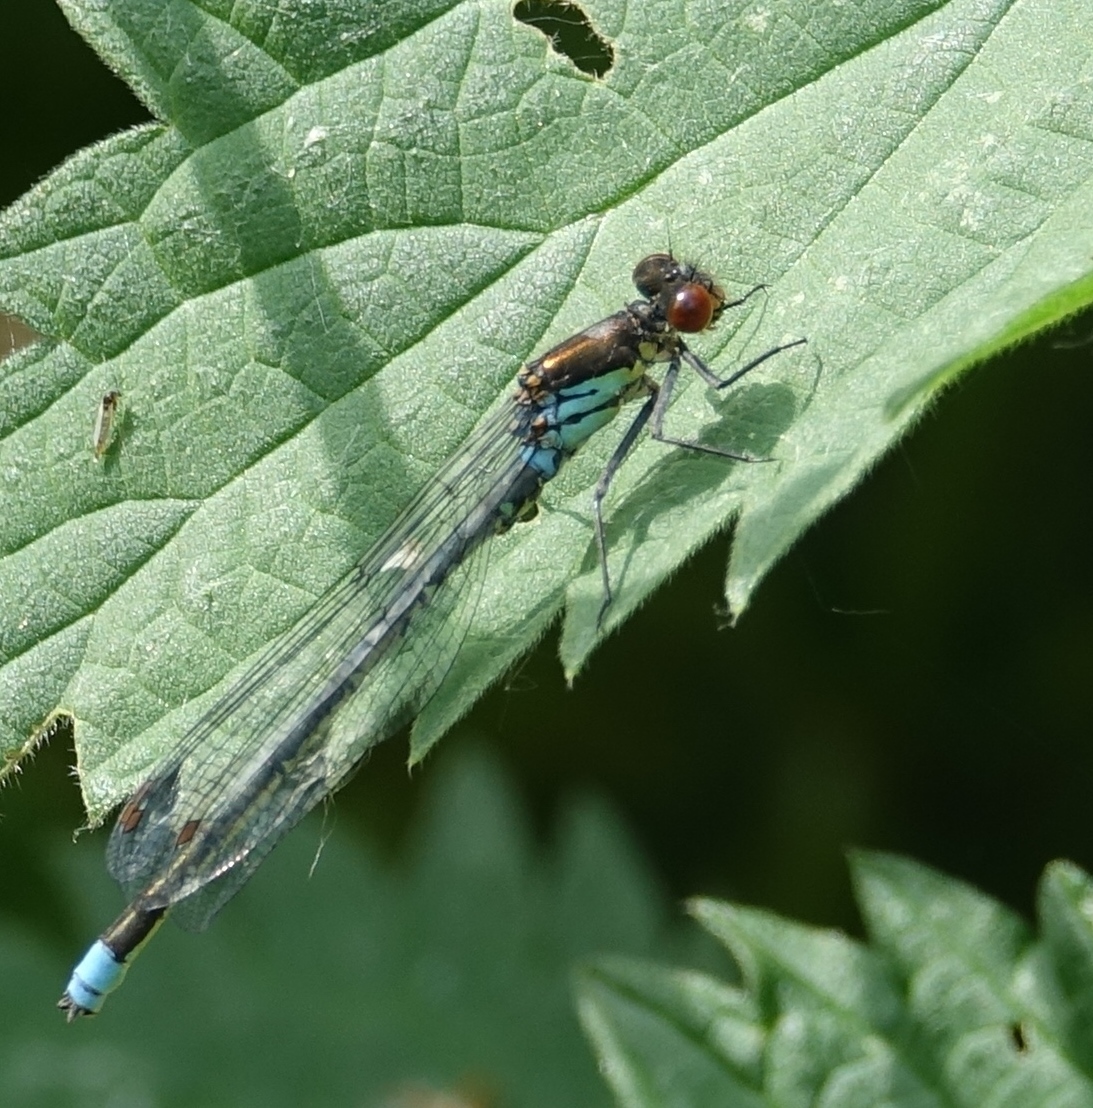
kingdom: Animalia
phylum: Arthropoda
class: Insecta
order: Odonata
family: Coenagrionidae
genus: Erythromma
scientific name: Erythromma najas
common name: Red-eyed damselfly
